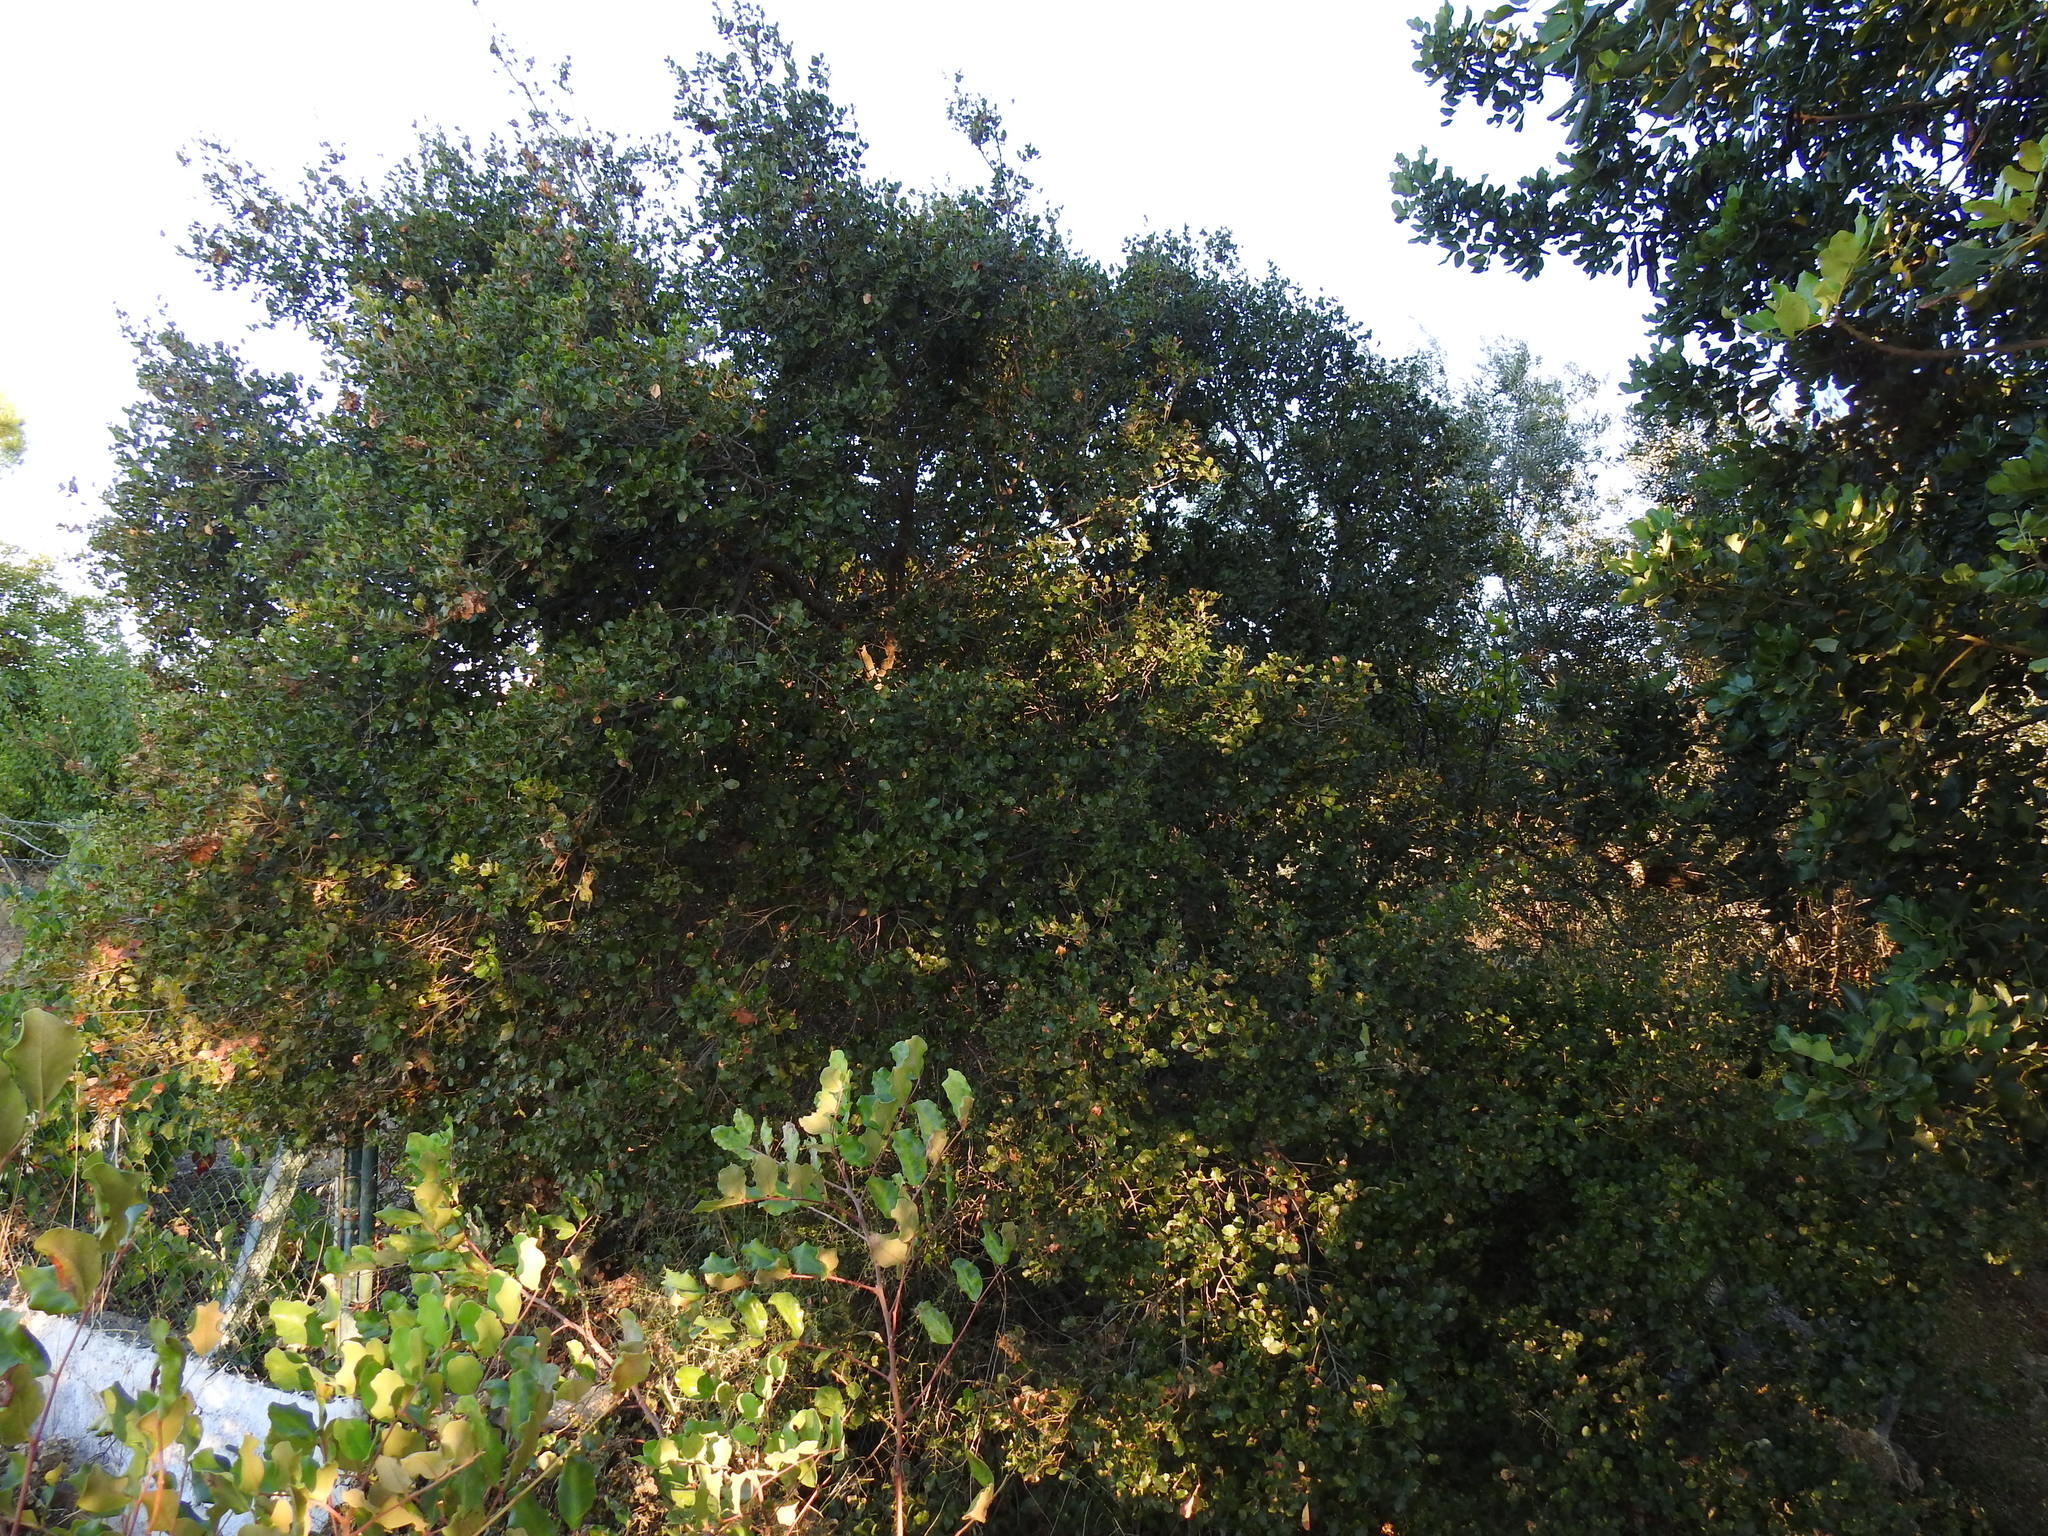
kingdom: Plantae
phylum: Tracheophyta
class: Magnoliopsida
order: Fagales
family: Fagaceae
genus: Quercus
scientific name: Quercus coccifera
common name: Kermes oak
